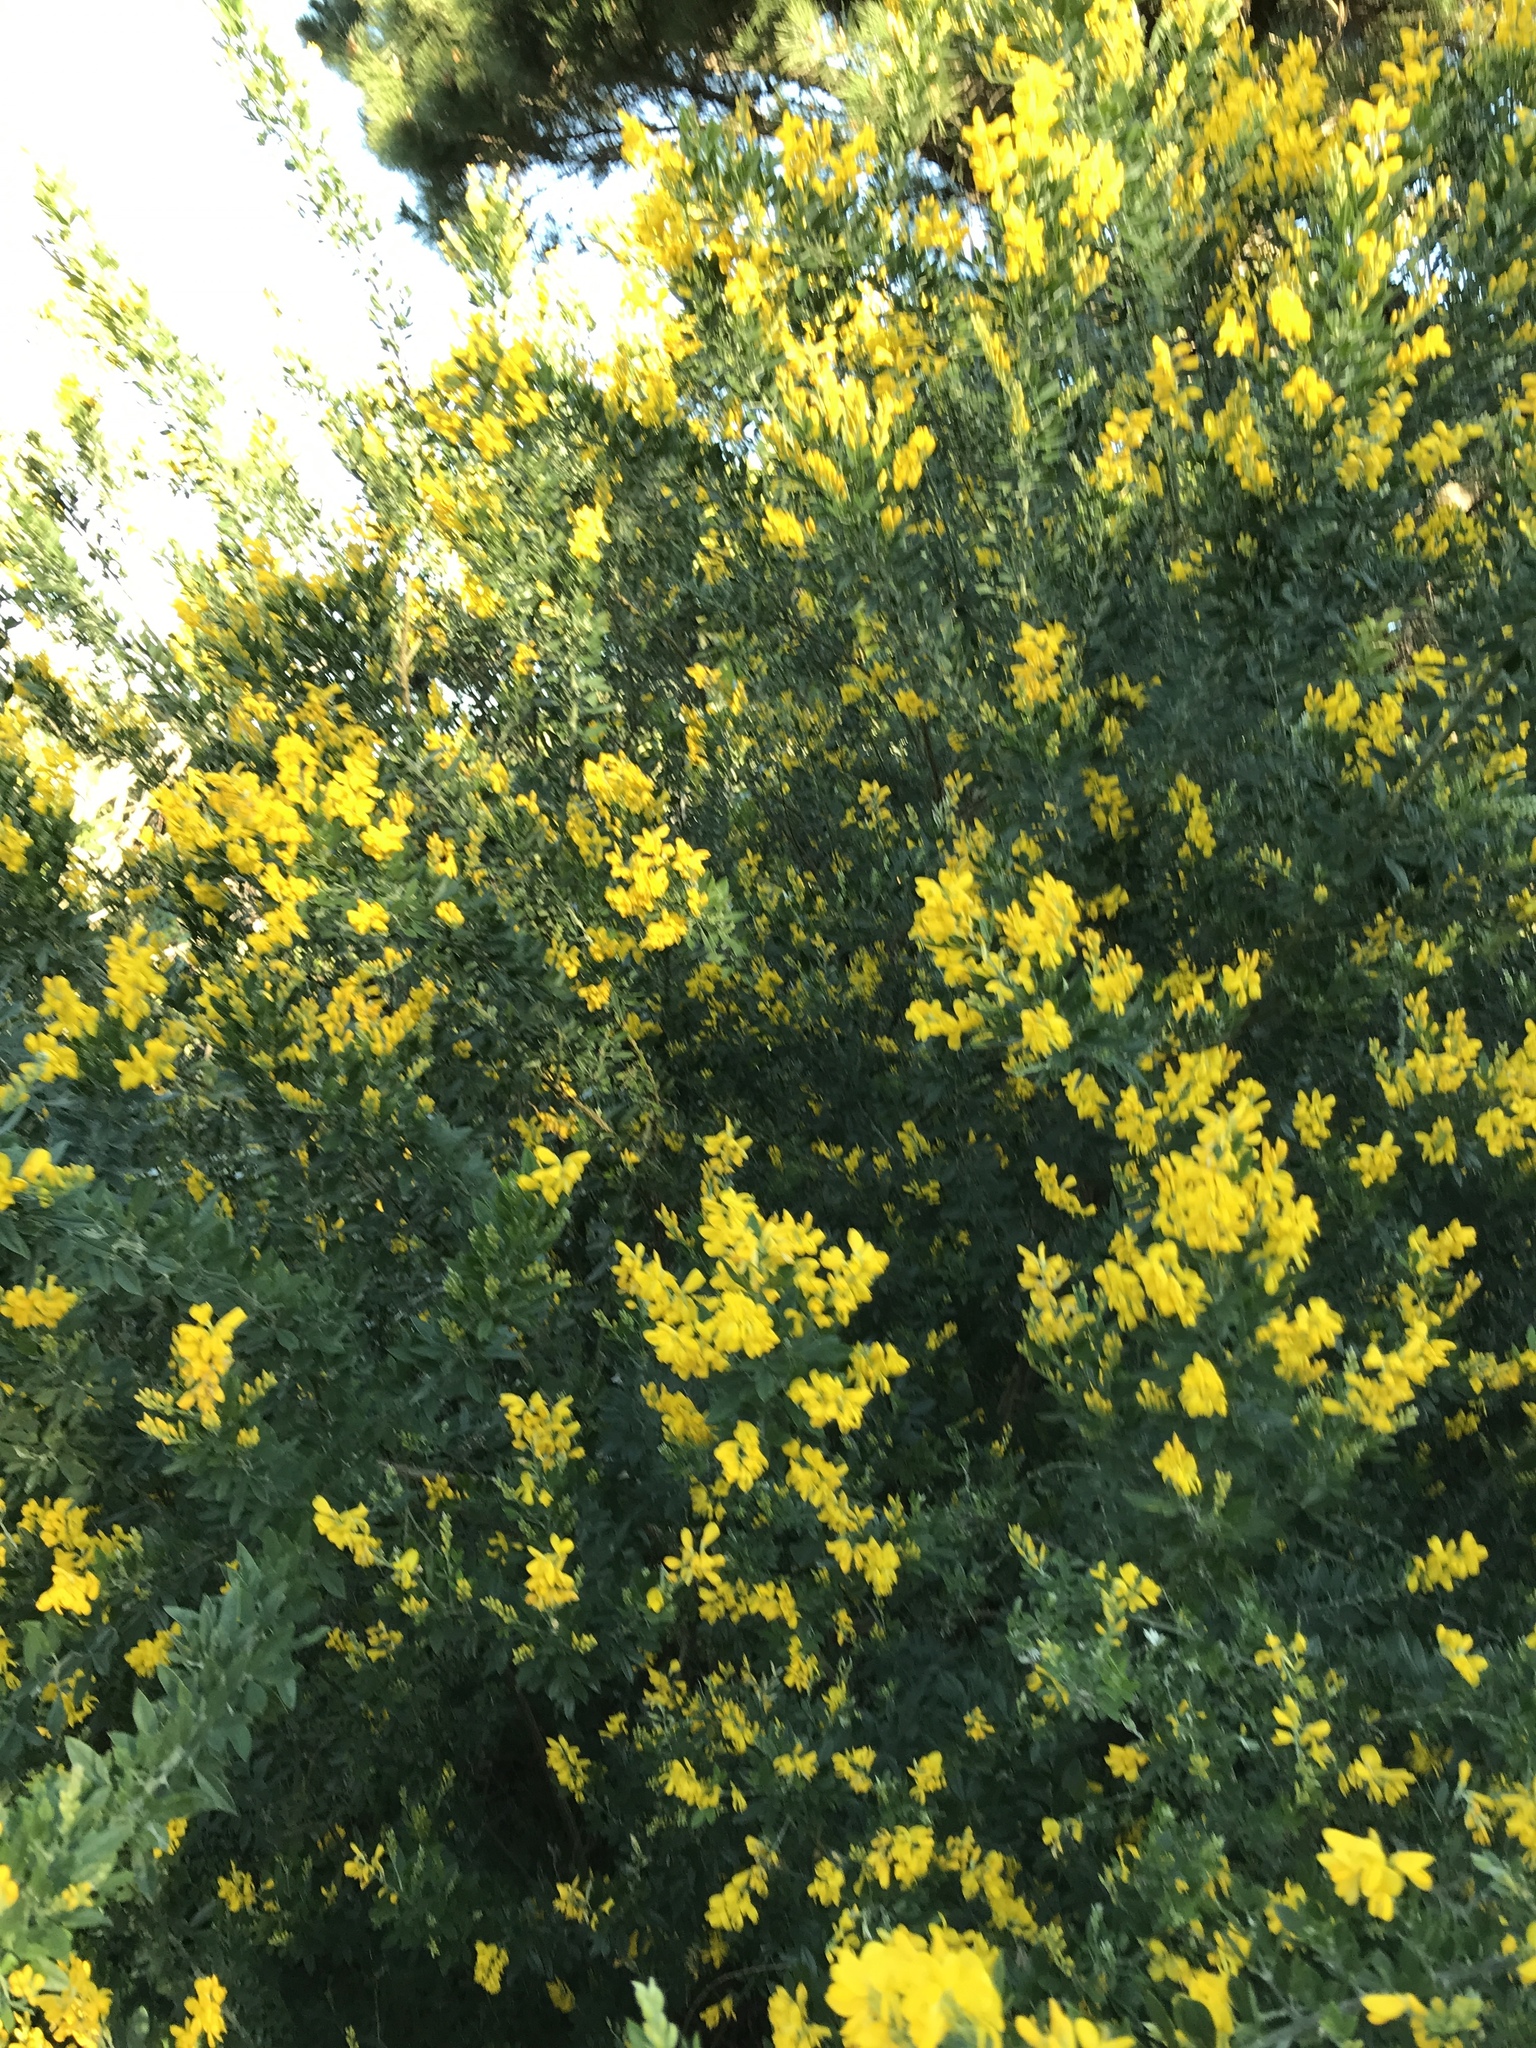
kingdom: Plantae
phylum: Tracheophyta
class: Magnoliopsida
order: Fabales
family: Fabaceae
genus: Genista
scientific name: Genista monspessulana
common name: Montpellier broom
